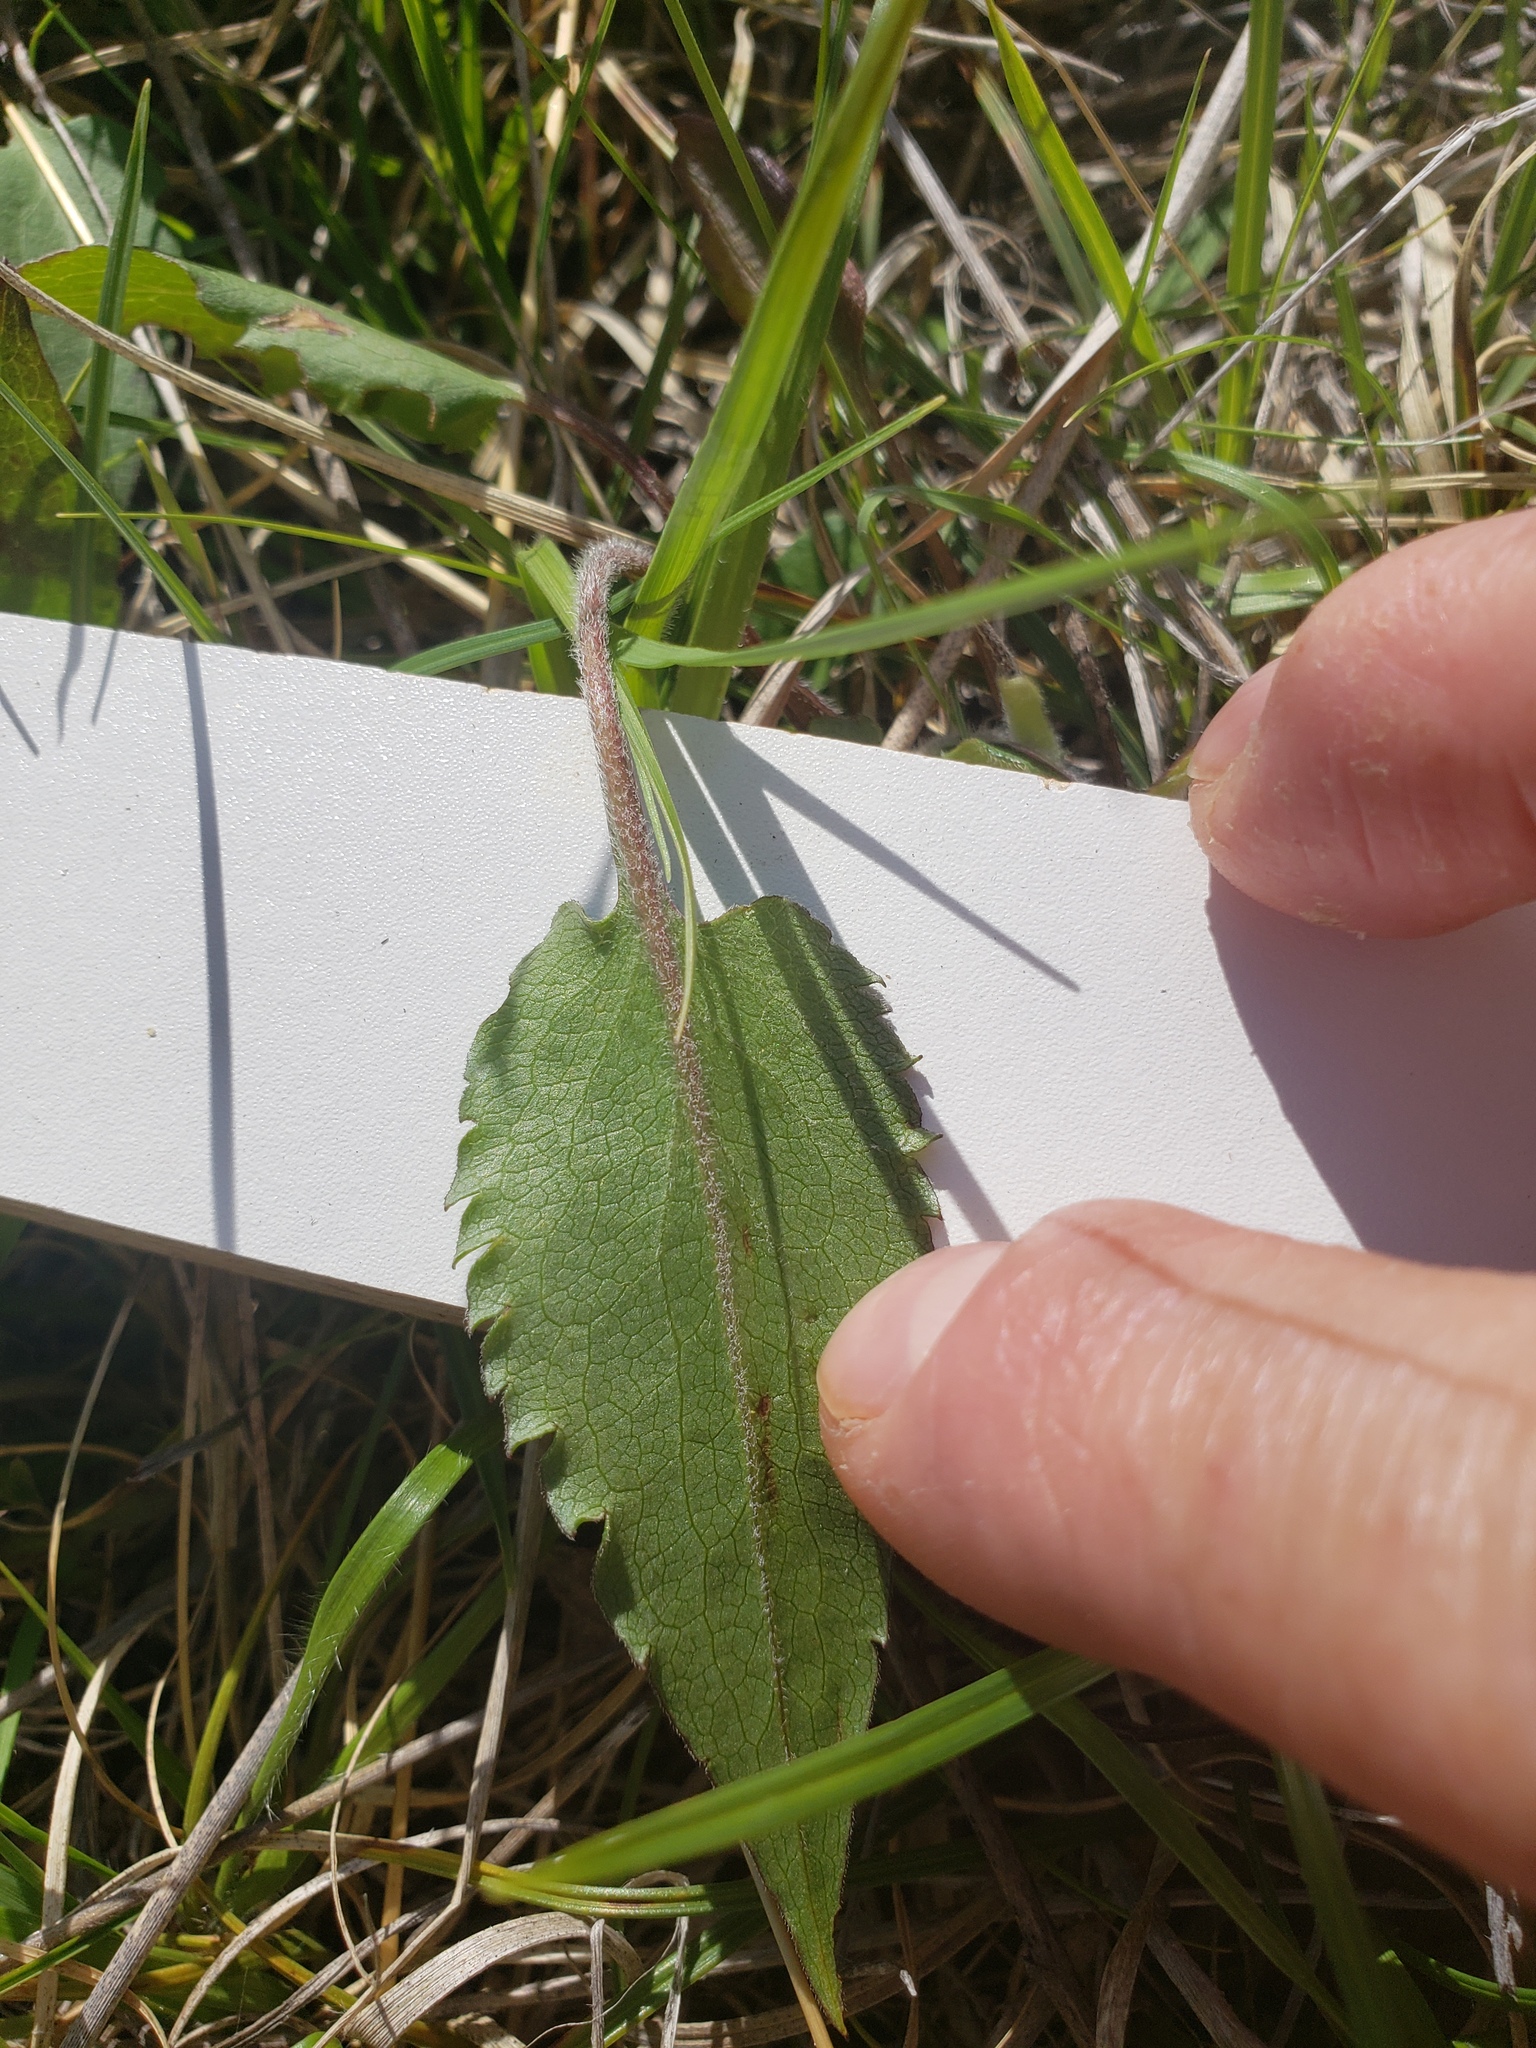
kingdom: Plantae
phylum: Tracheophyta
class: Magnoliopsida
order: Asterales
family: Asteraceae
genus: Symphyotrichum
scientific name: Symphyotrichum ciliolatum
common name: Fringed blue aster
